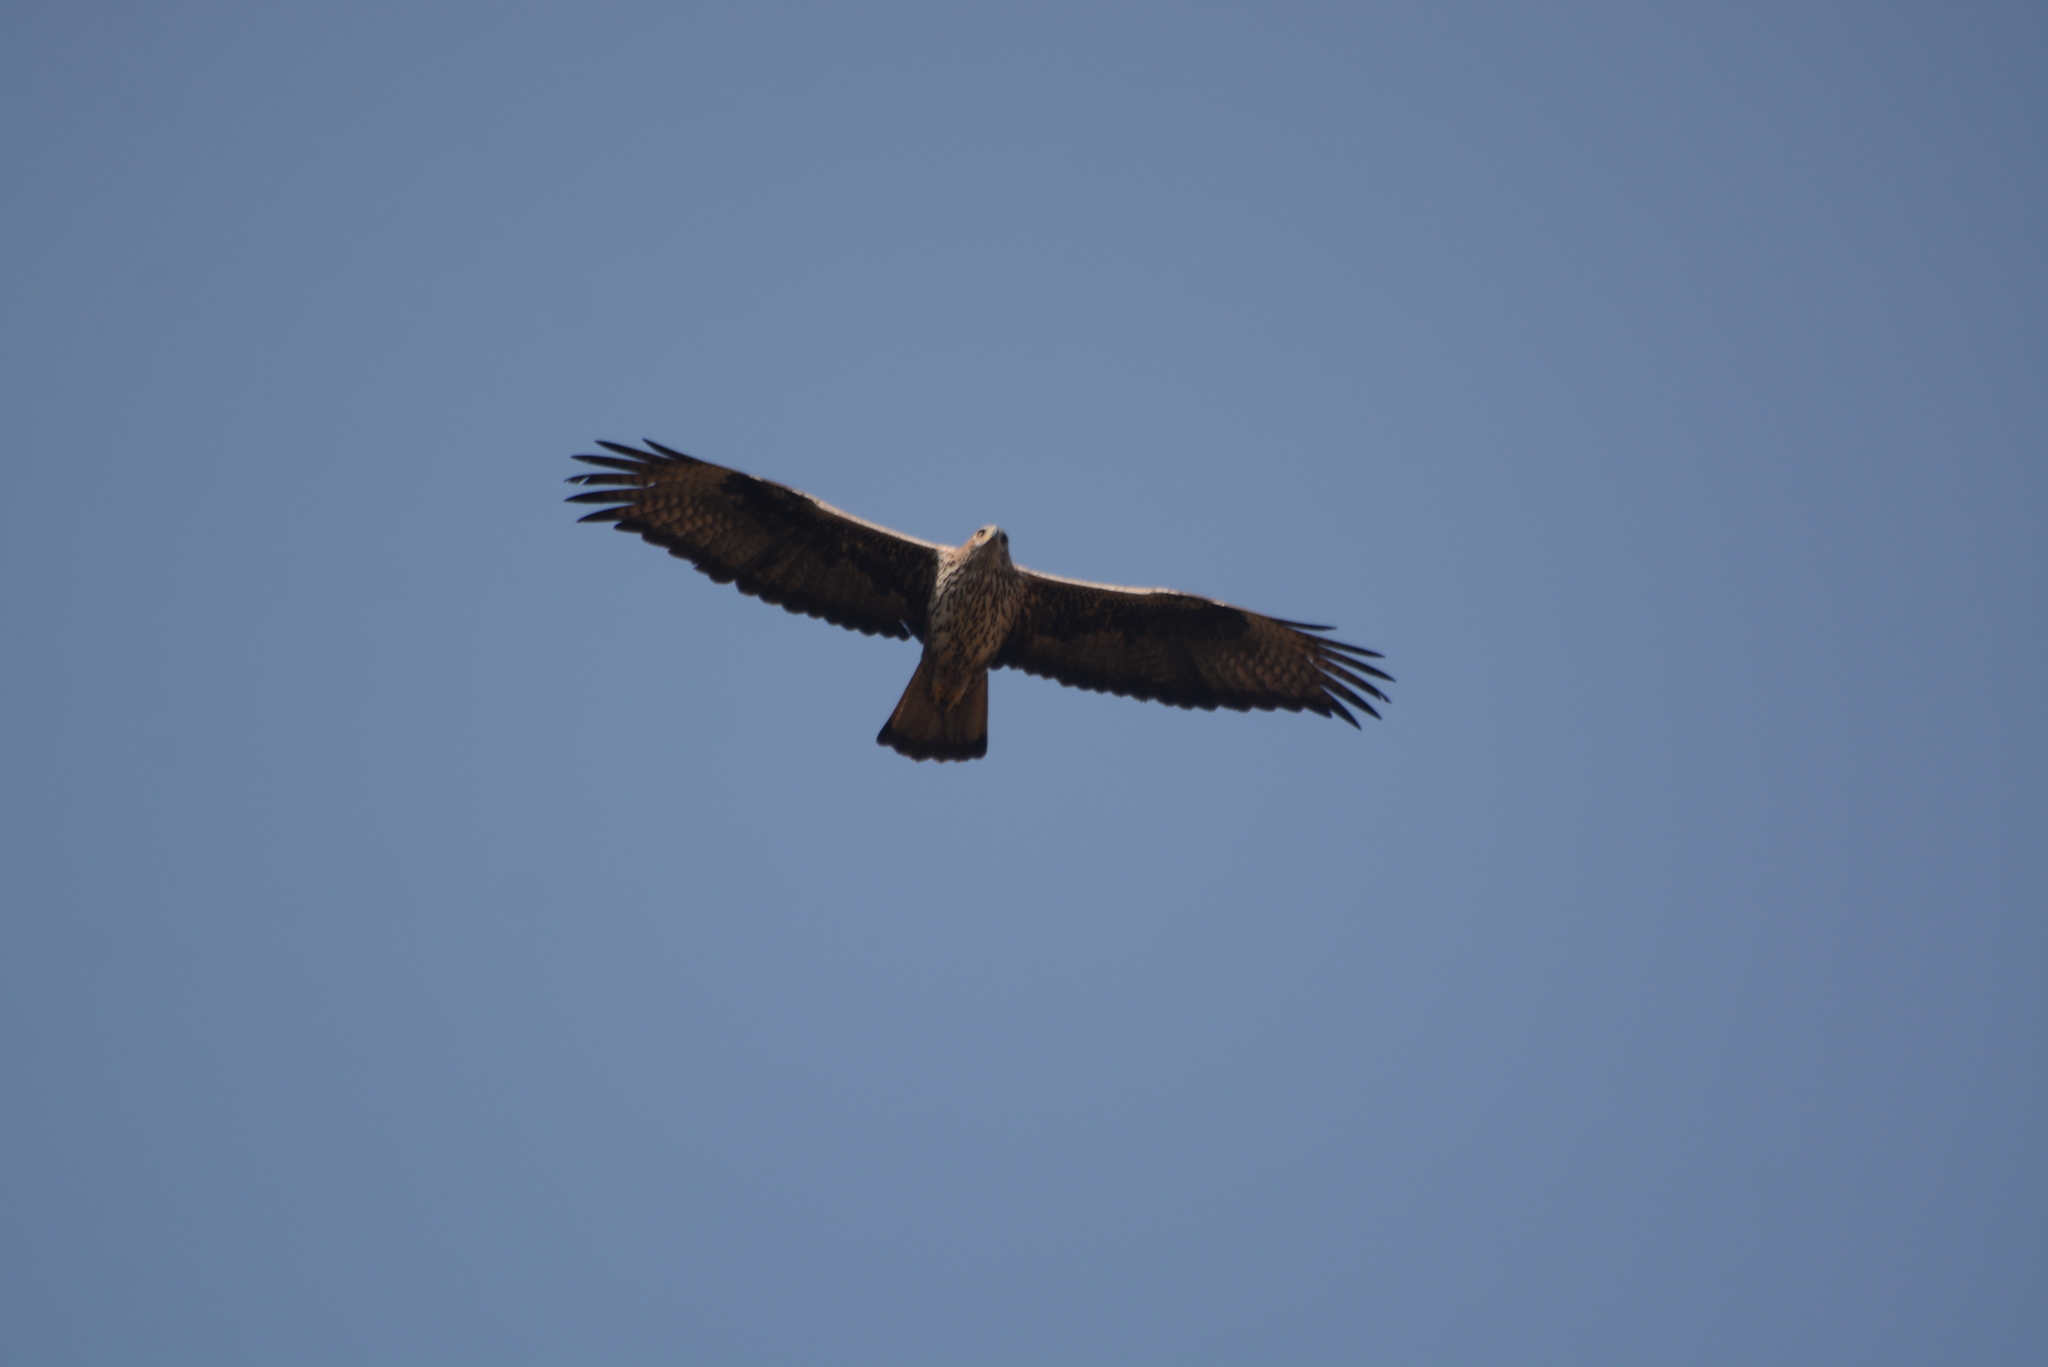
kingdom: Animalia
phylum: Chordata
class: Aves
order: Accipitriformes
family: Accipitridae
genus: Aquila
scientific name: Aquila fasciata
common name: Bonelli's eagle
